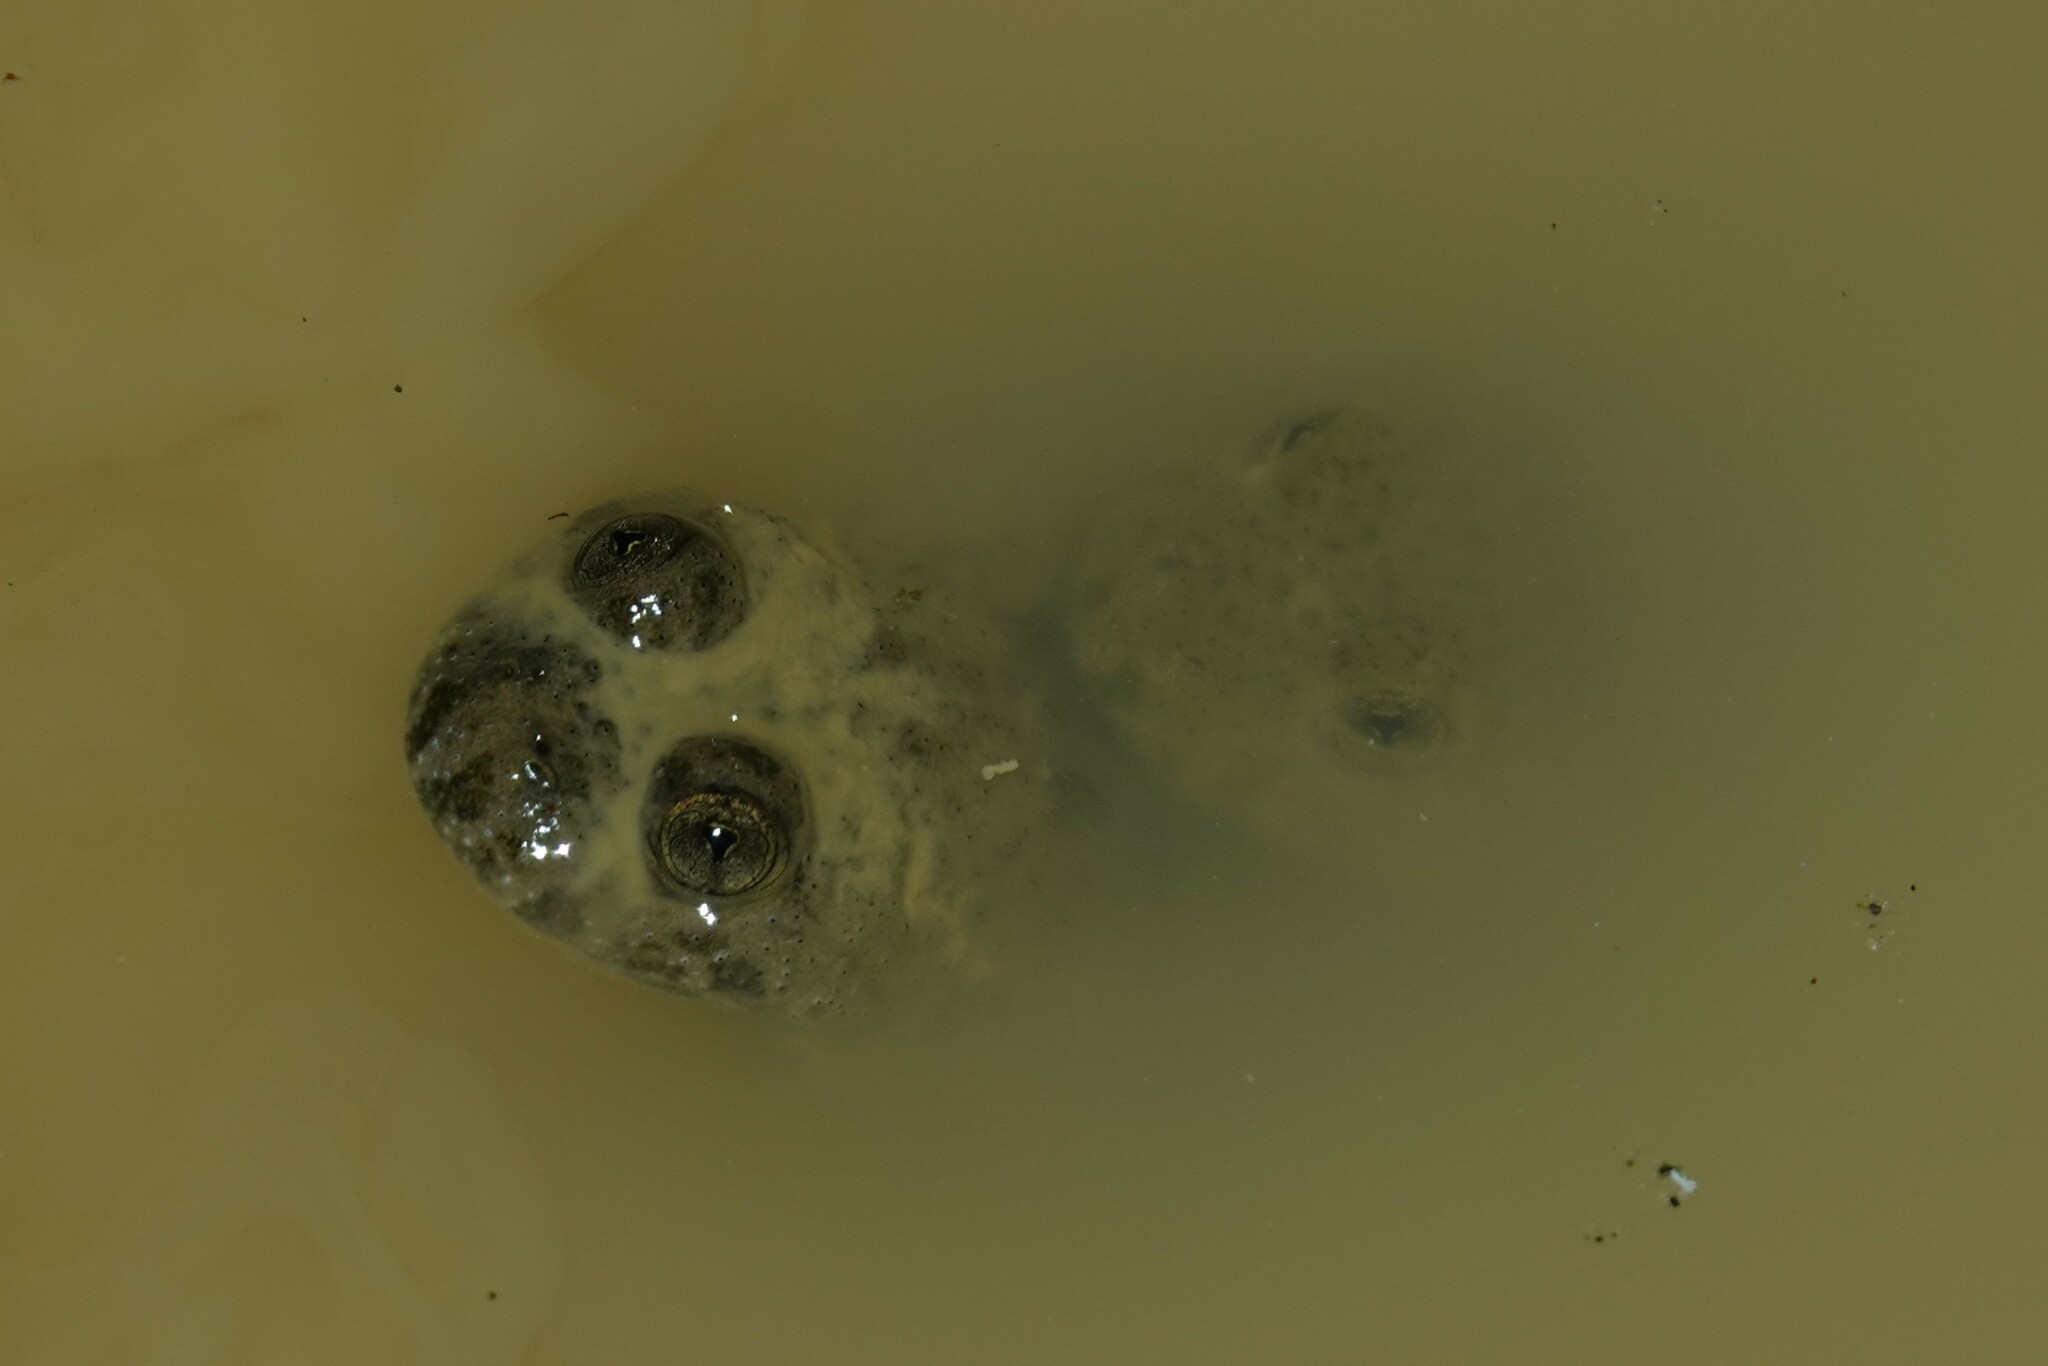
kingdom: Animalia
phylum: Chordata
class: Amphibia
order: Anura
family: Bombinatoridae
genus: Bombina
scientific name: Bombina variegata
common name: Yellow-bellied toad
